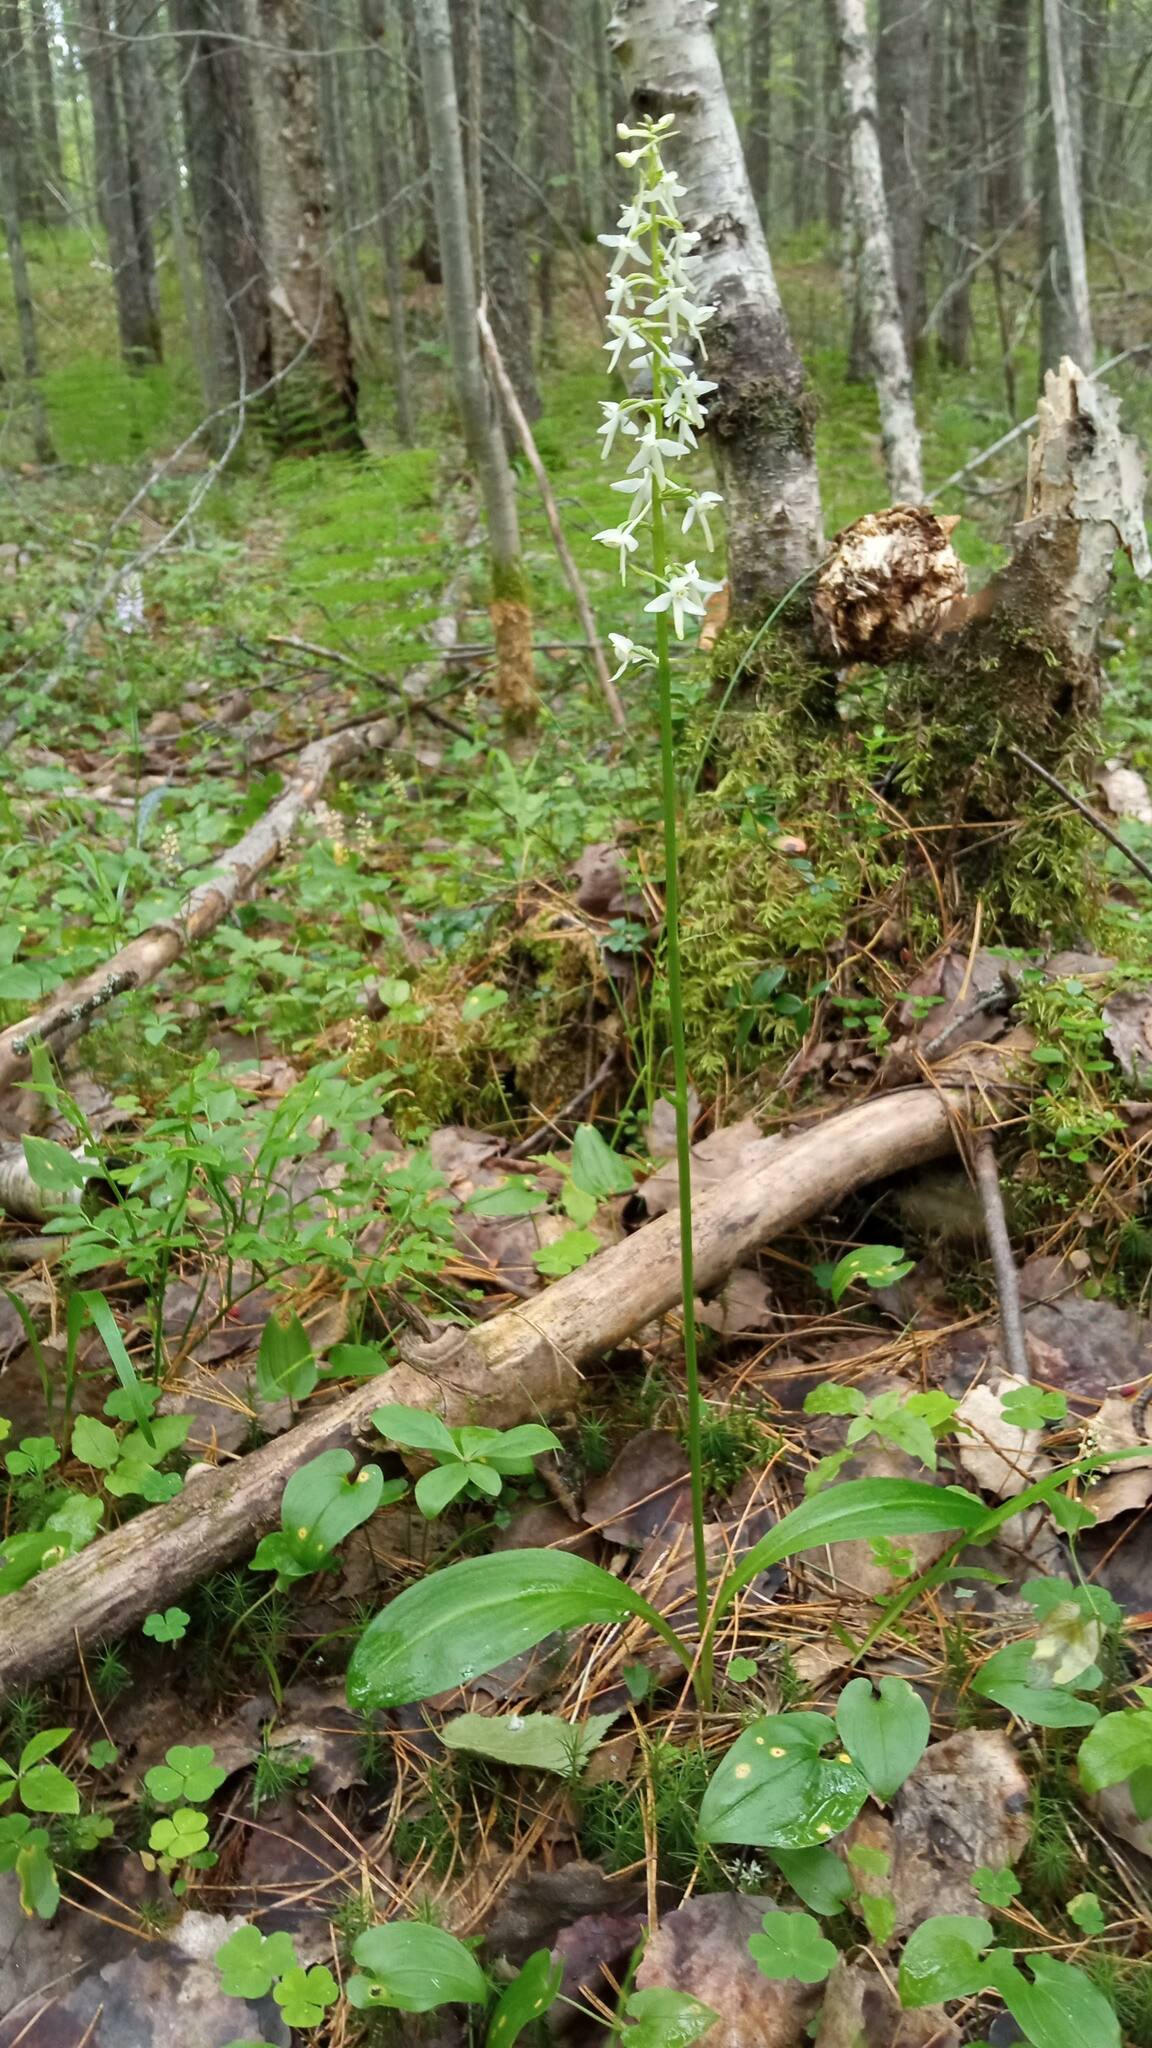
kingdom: Plantae
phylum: Tracheophyta
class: Liliopsida
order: Asparagales
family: Orchidaceae
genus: Platanthera
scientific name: Platanthera bifolia
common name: Lesser butterfly-orchid
